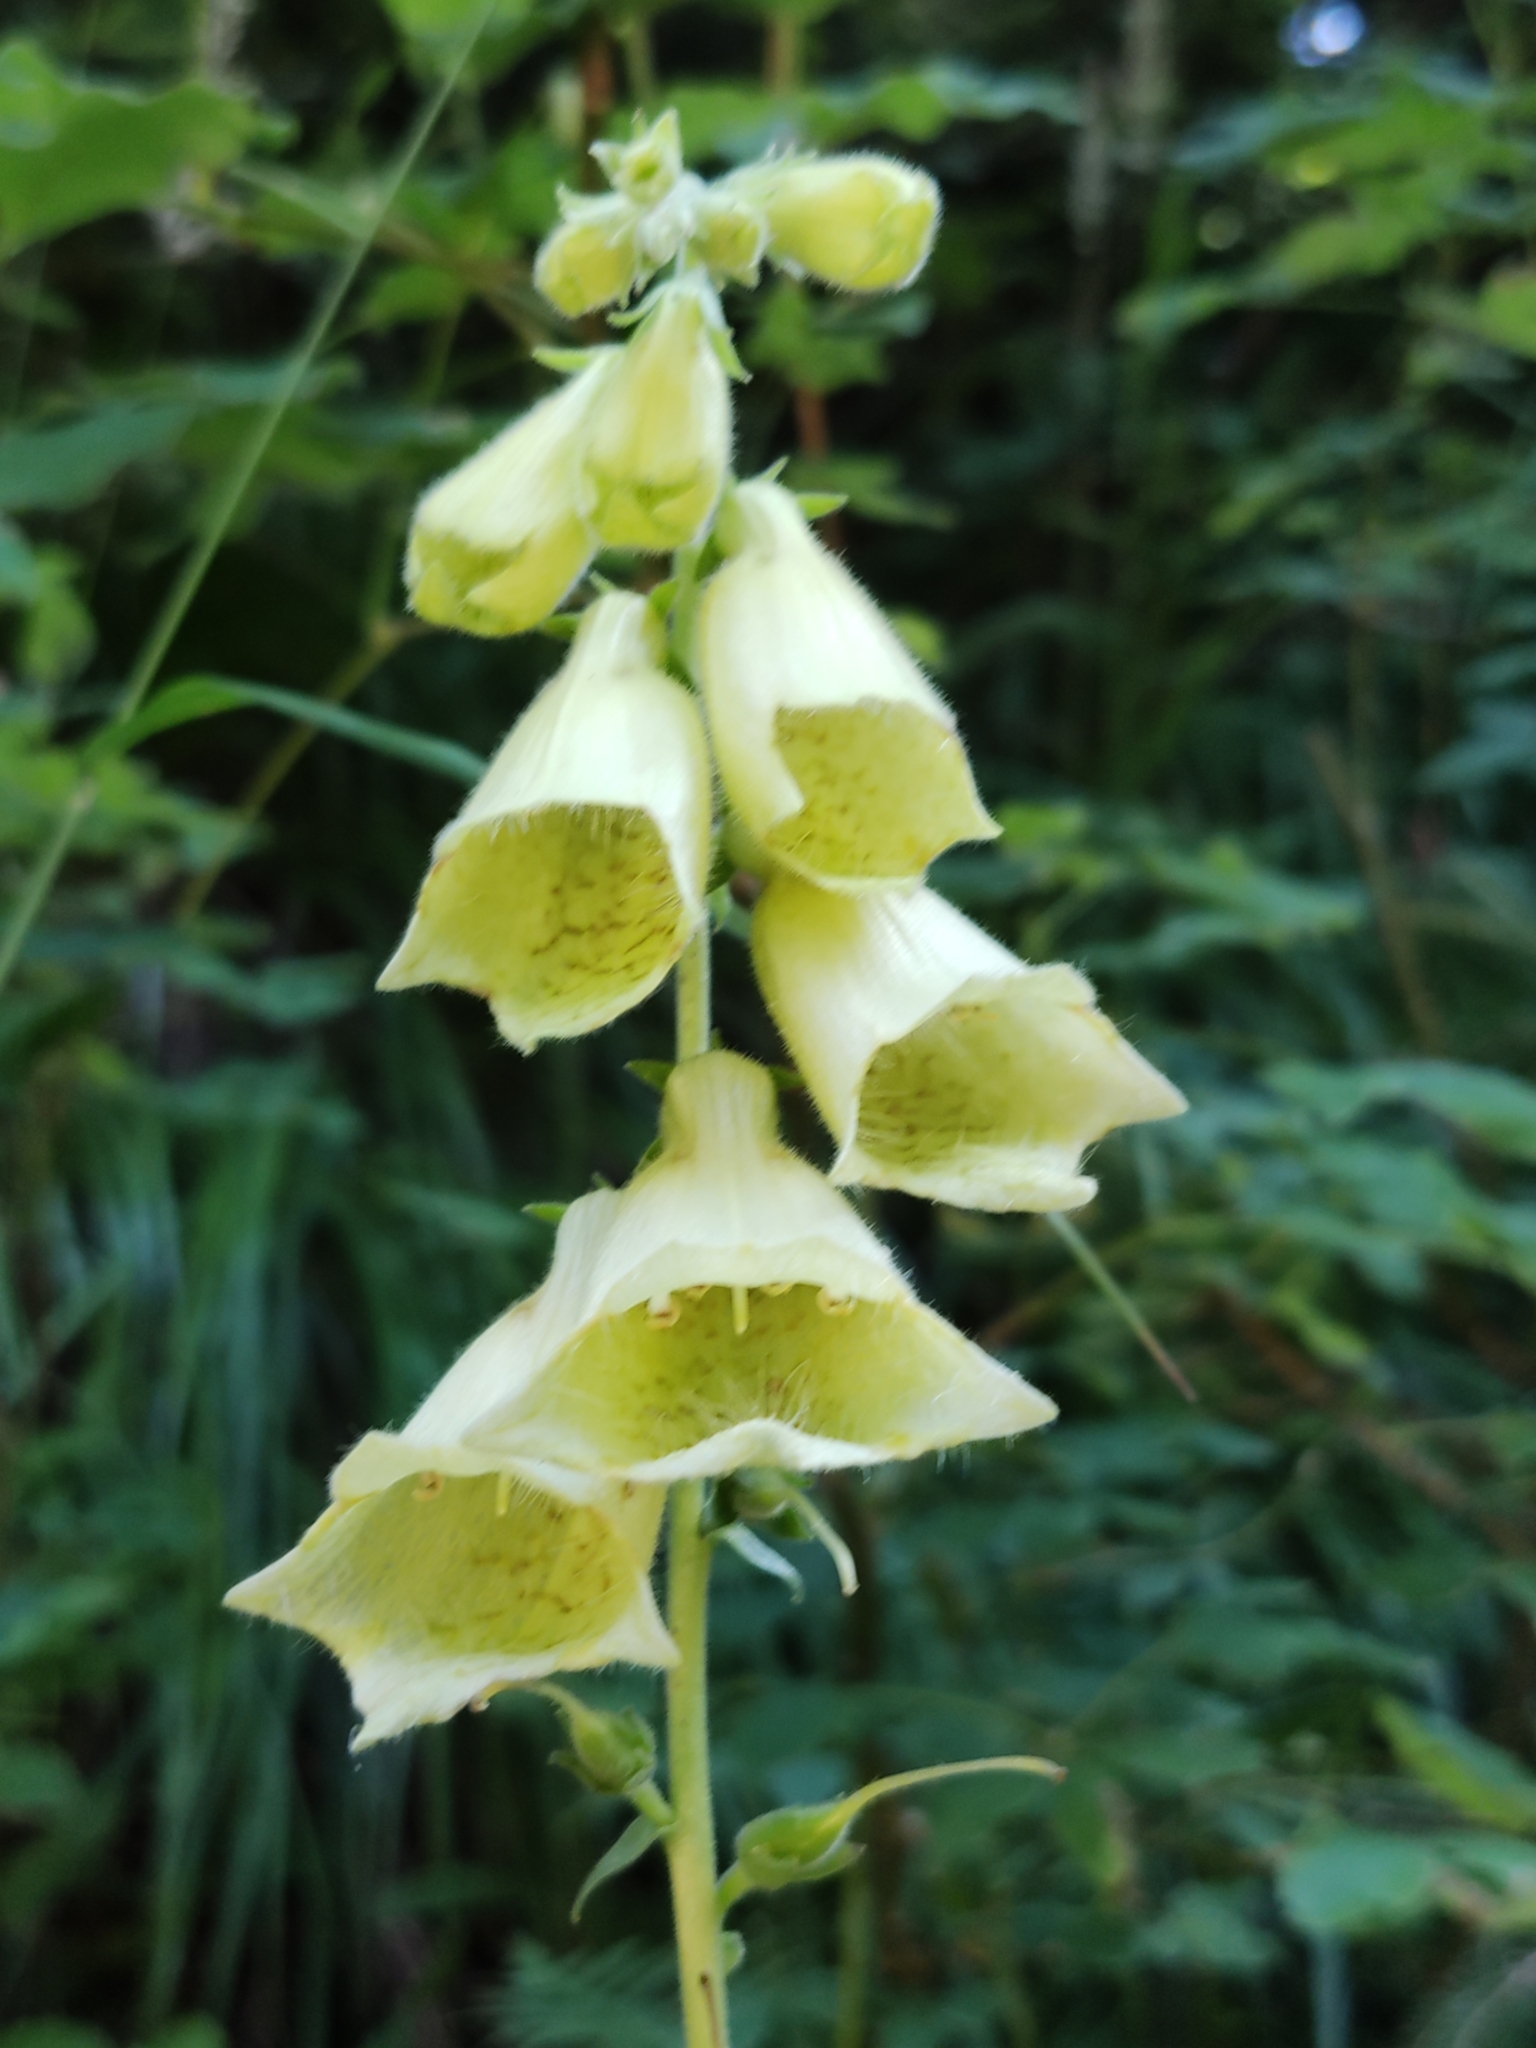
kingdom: Plantae
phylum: Tracheophyta
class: Magnoliopsida
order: Lamiales
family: Plantaginaceae
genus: Digitalis
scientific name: Digitalis grandiflora
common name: Yellow foxglove
